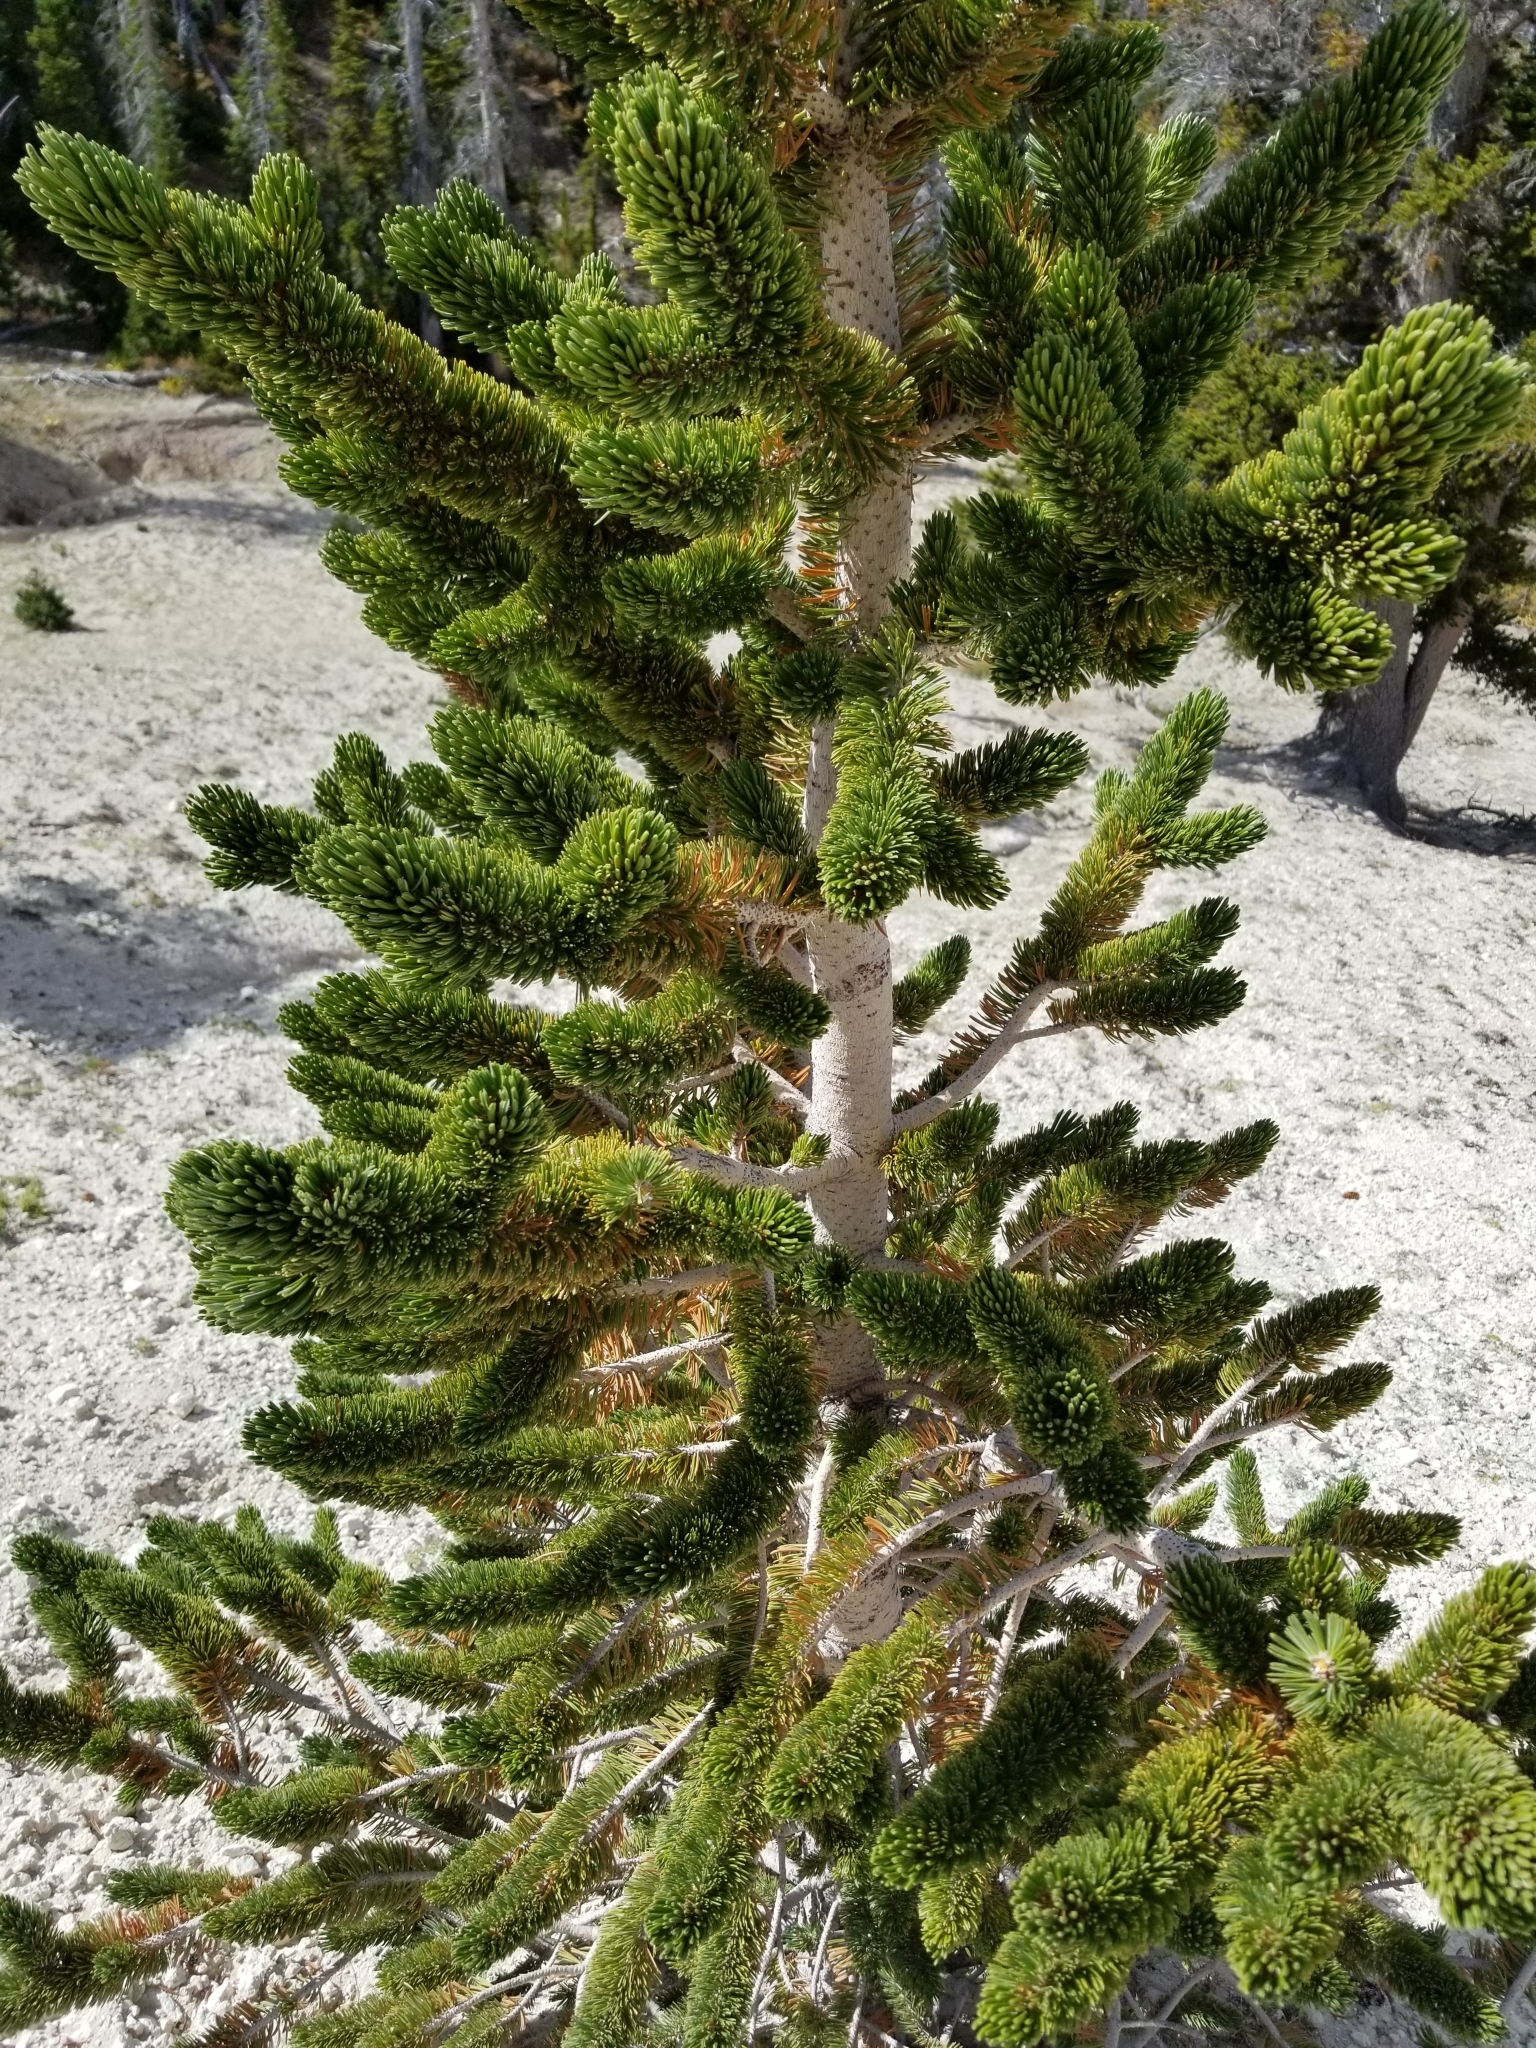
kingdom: Plantae
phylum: Tracheophyta
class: Pinopsida
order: Pinales
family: Pinaceae
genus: Pinus
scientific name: Pinus longaeva
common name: Intermountain bristlecone pine
